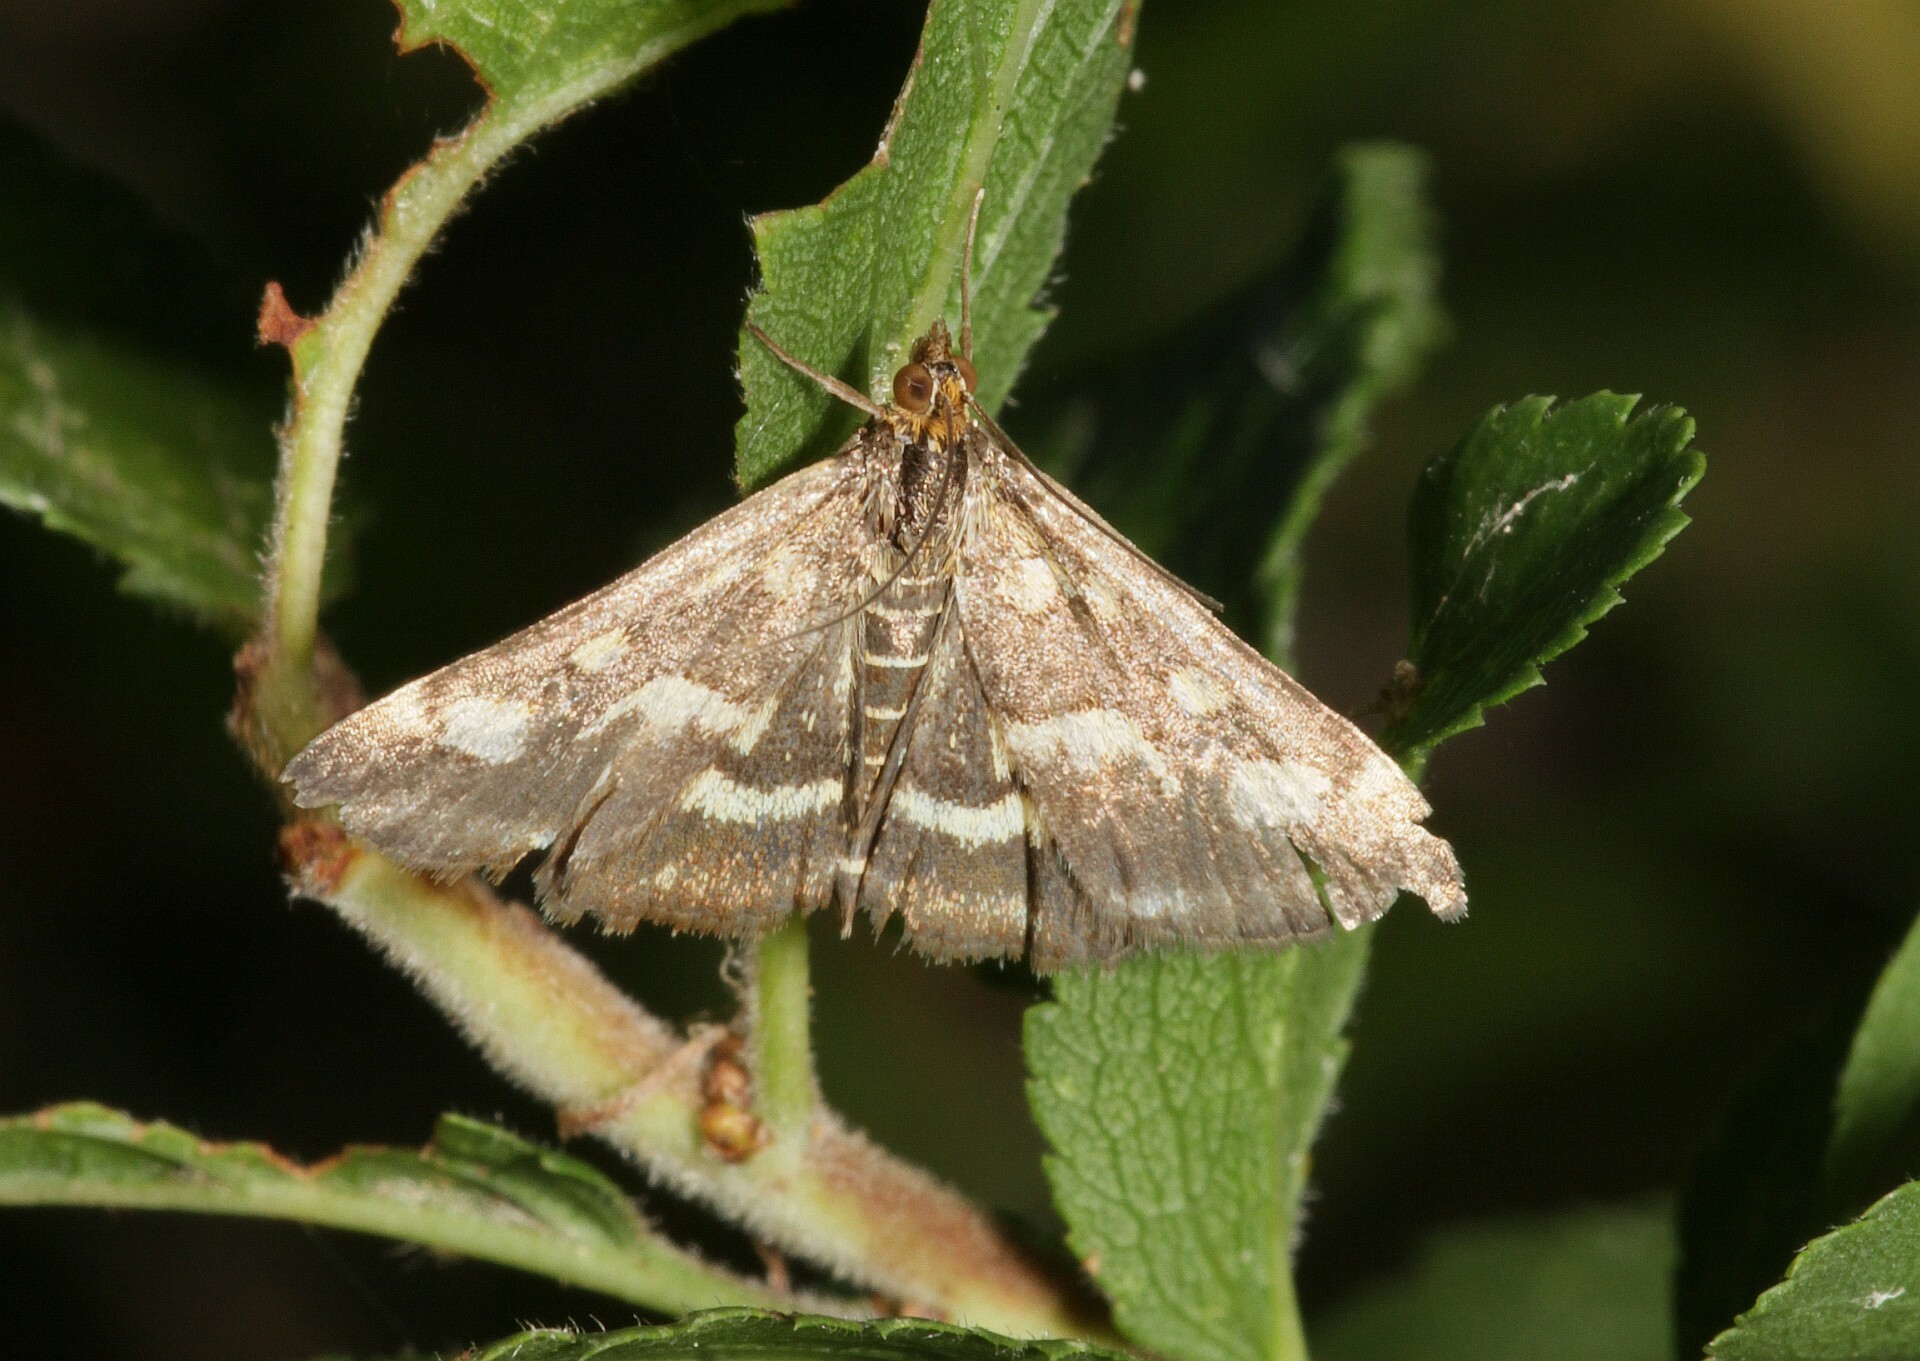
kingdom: Animalia
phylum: Arthropoda
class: Insecta
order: Lepidoptera
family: Crambidae
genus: Pyrausta
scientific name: Pyrausta purpuralis
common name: Common purple & gold
